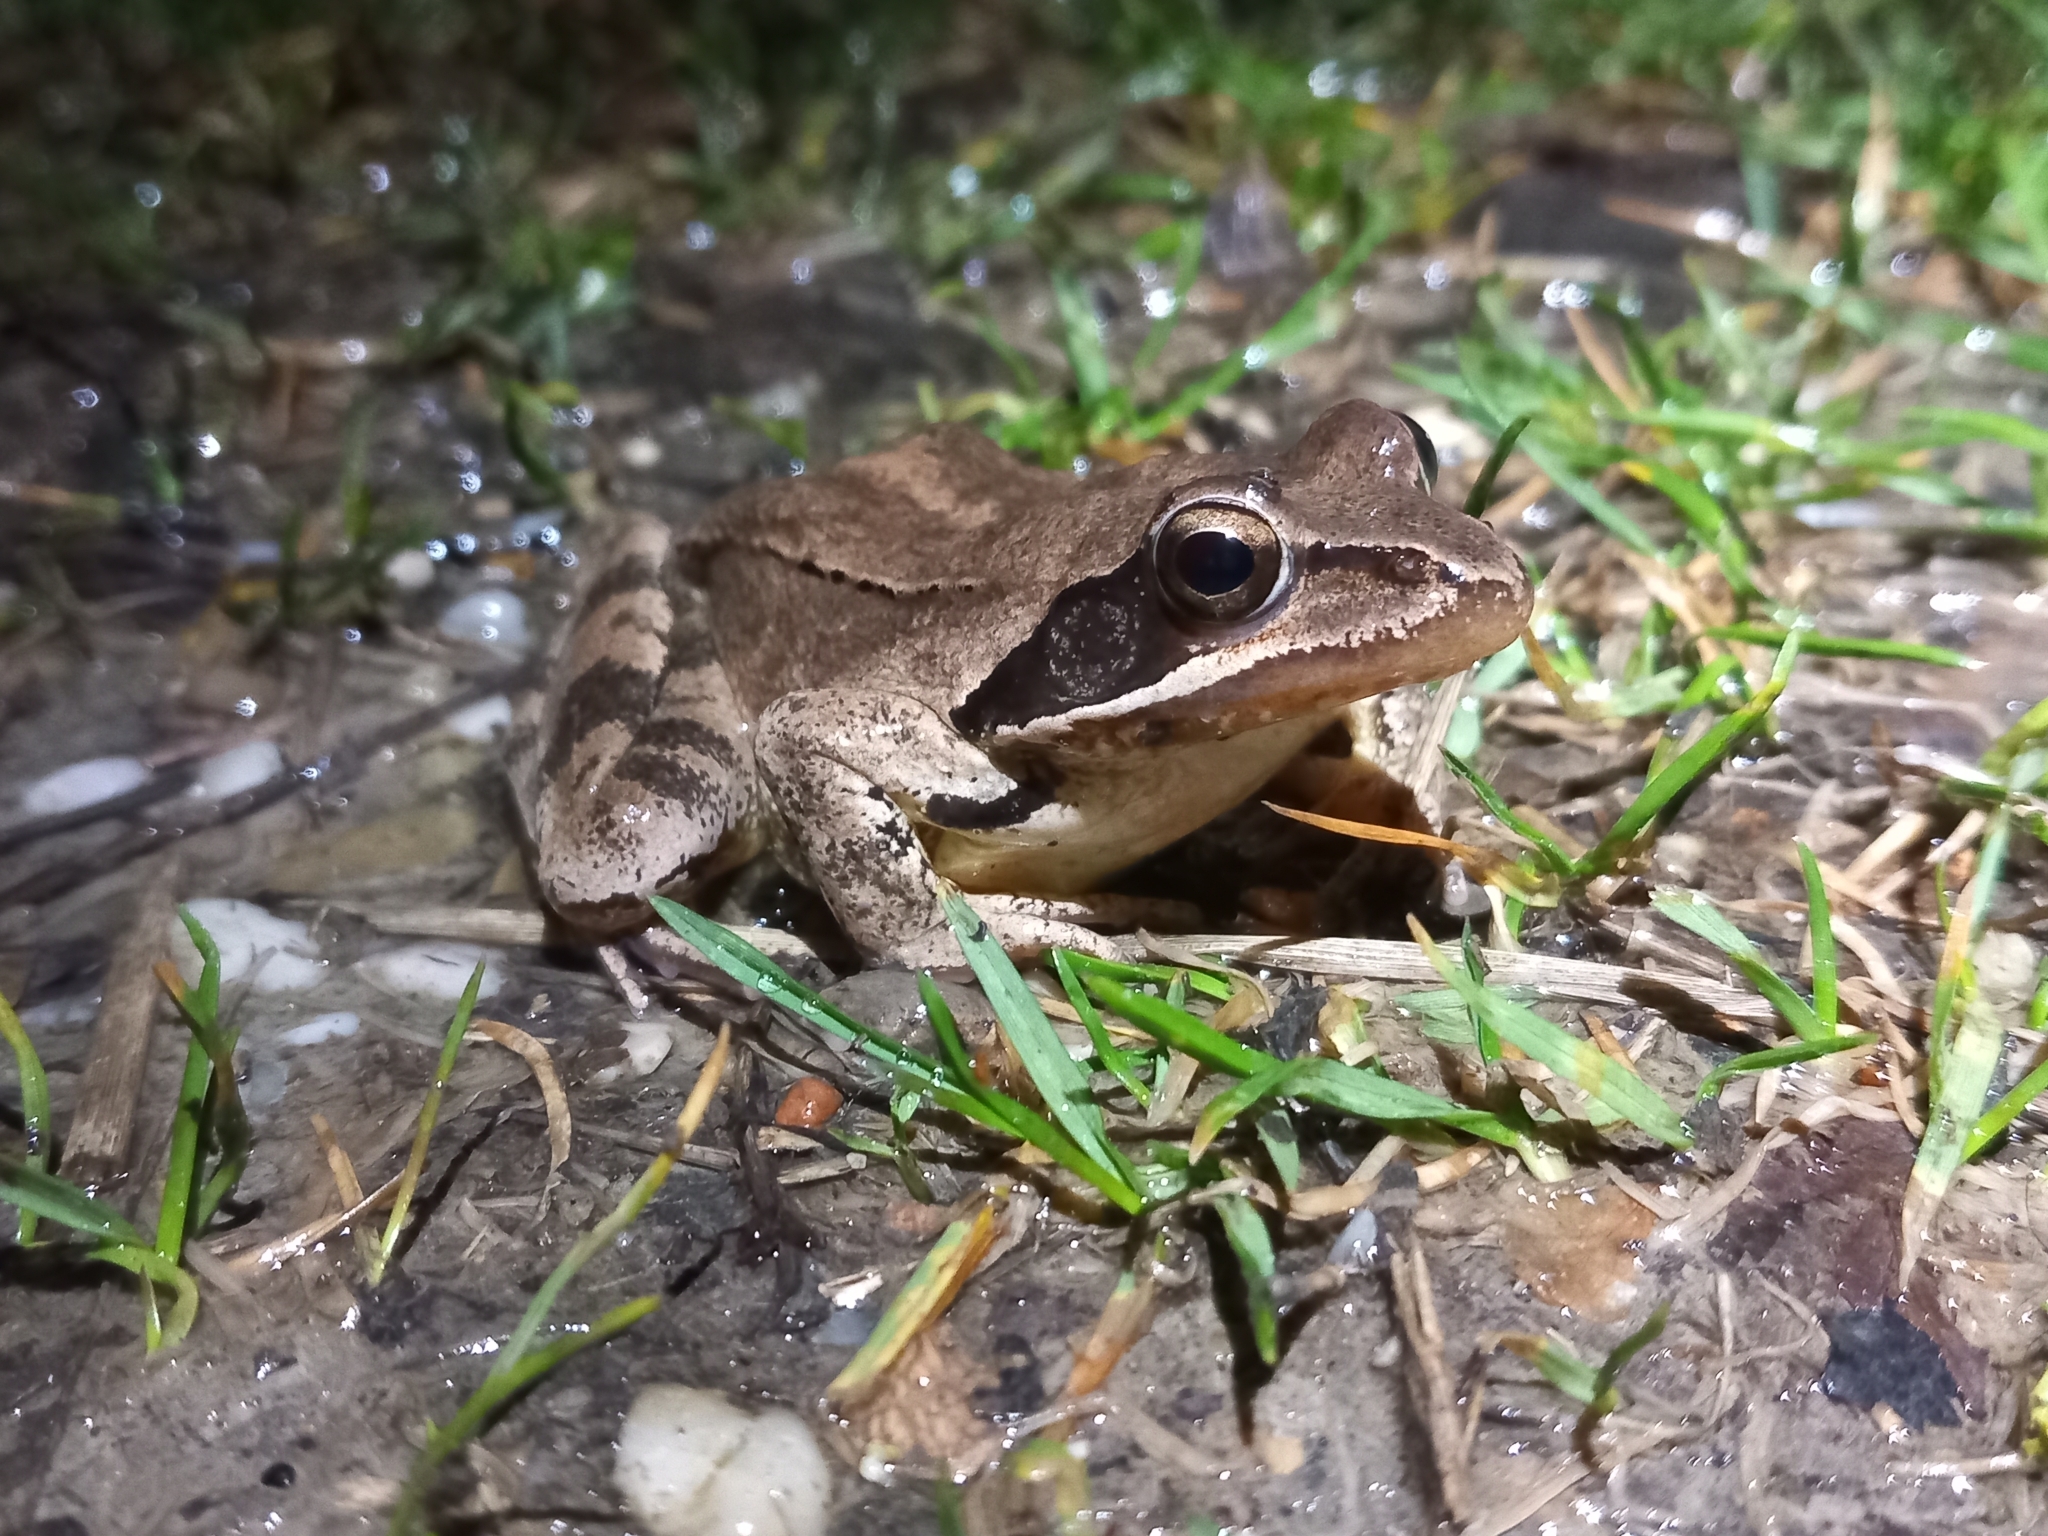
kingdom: Animalia
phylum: Chordata
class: Amphibia
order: Anura
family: Ranidae
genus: Rana
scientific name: Rana dalmatina
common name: Agile frog
